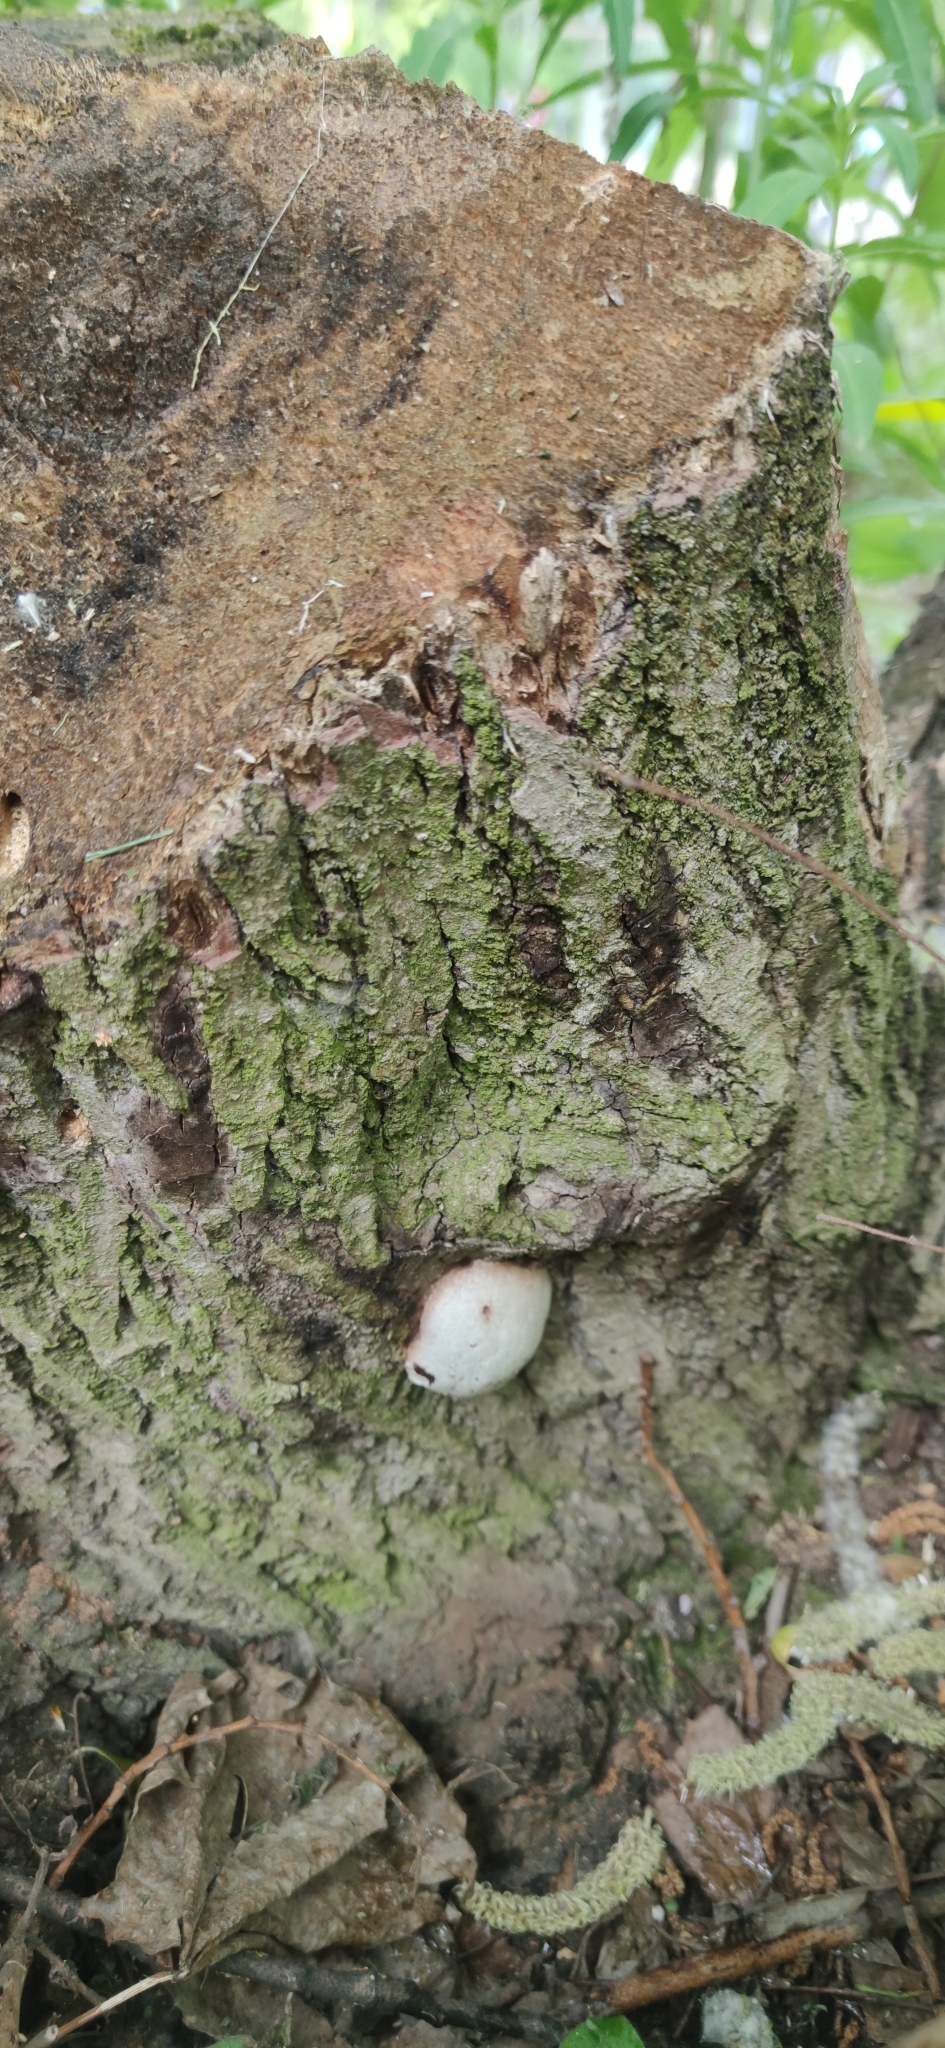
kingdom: Protozoa
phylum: Mycetozoa
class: Myxomycetes
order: Cribrariales
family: Tubiferaceae
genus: Reticularia
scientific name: Reticularia lycoperdon
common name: False puffball
